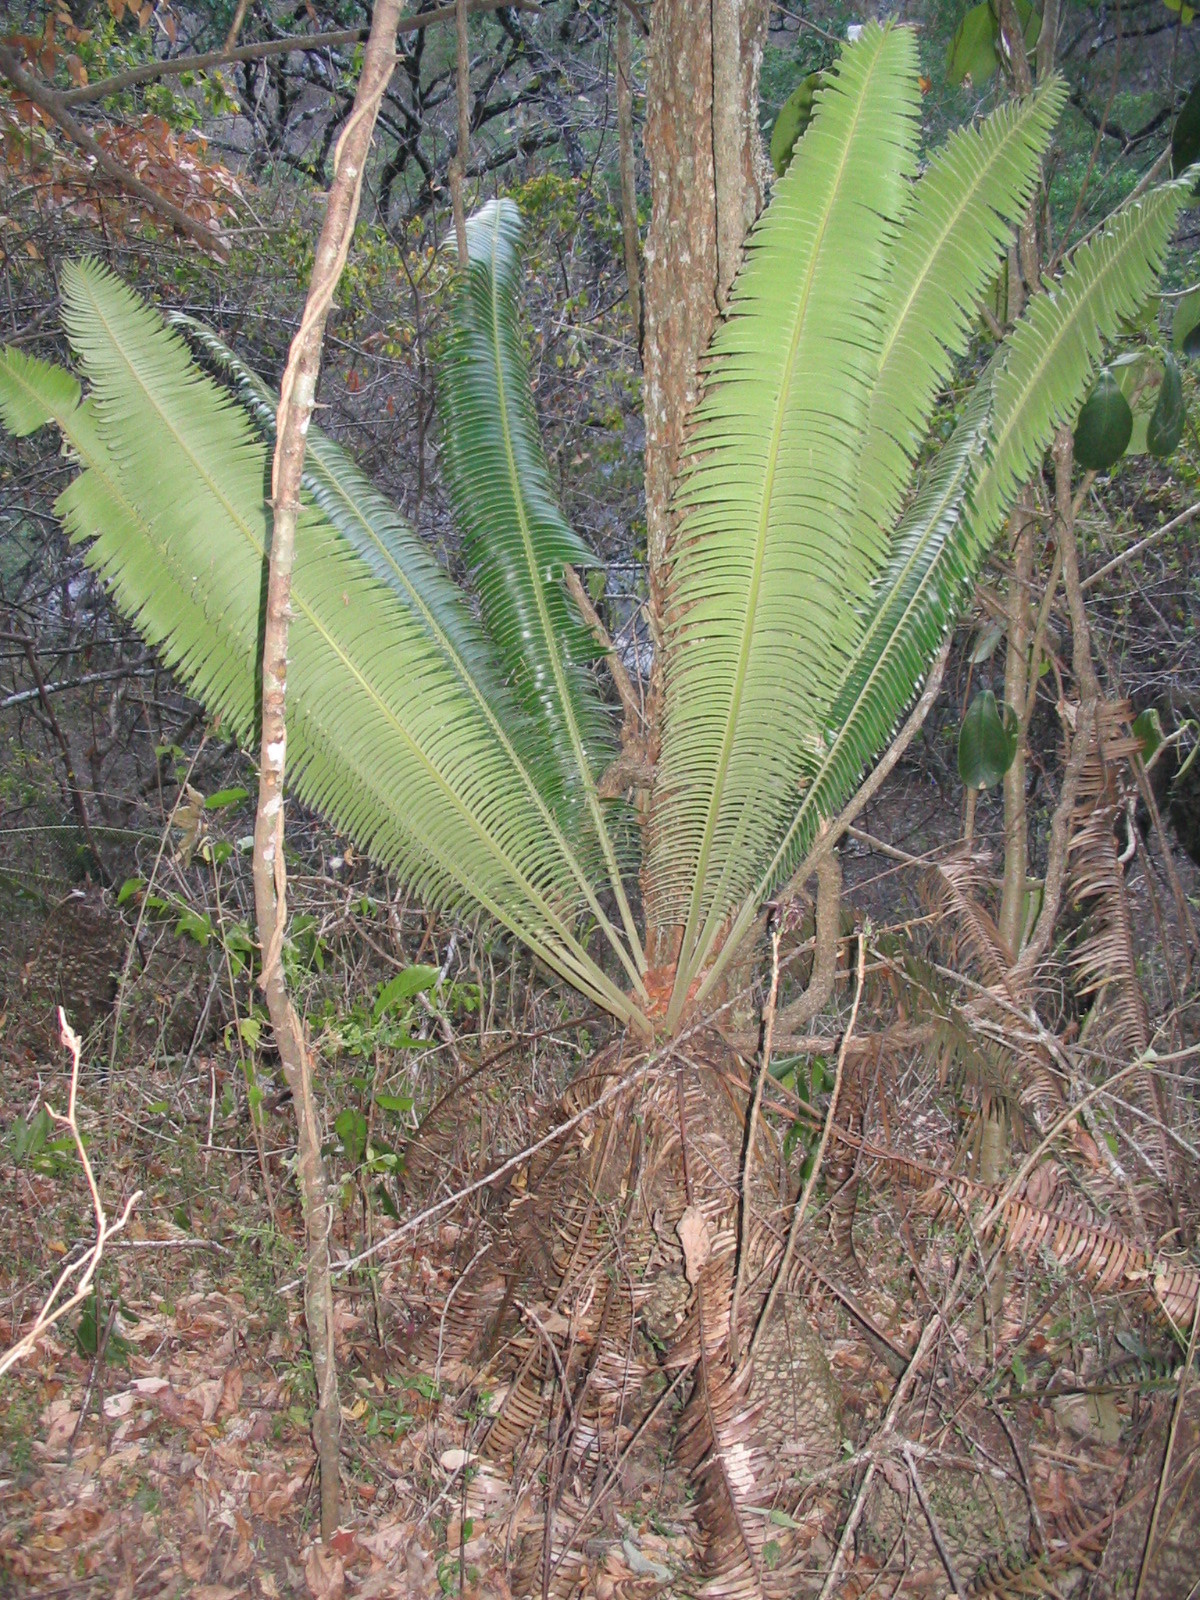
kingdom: Plantae
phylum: Tracheophyta
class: Cycadopsida
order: Cycadales
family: Zamiaceae
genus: Dioon
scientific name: Dioon tomasellii
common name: Palmita
